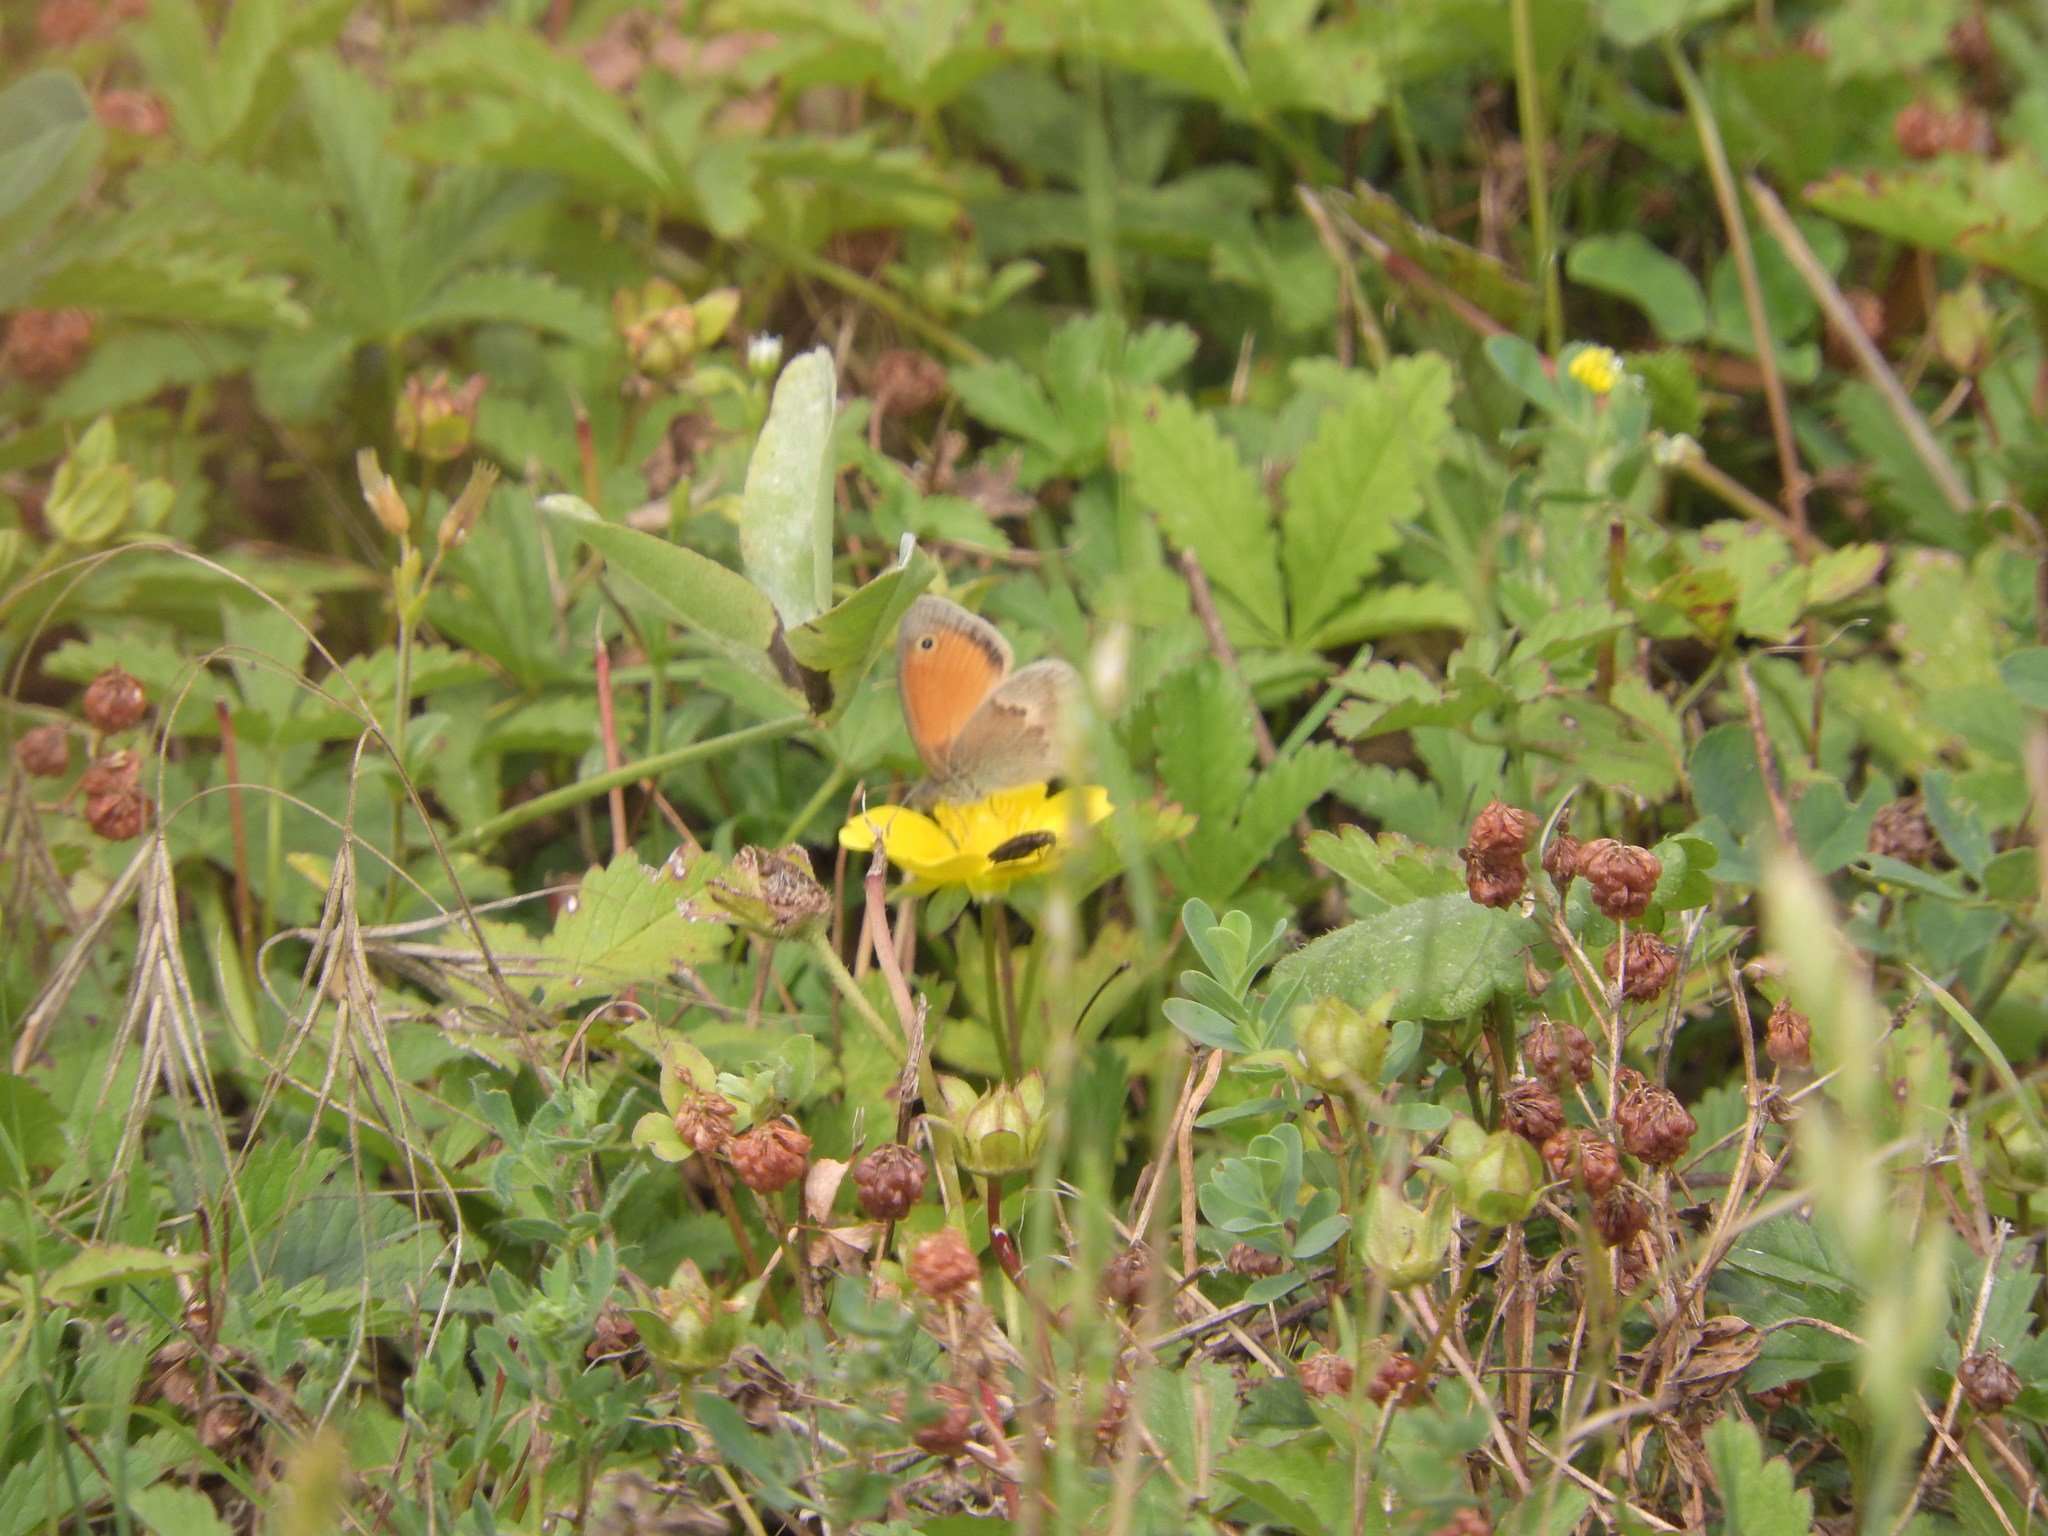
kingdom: Animalia
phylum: Arthropoda
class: Insecta
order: Lepidoptera
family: Nymphalidae
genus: Coenonympha
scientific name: Coenonympha pamphilus
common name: Small heath
